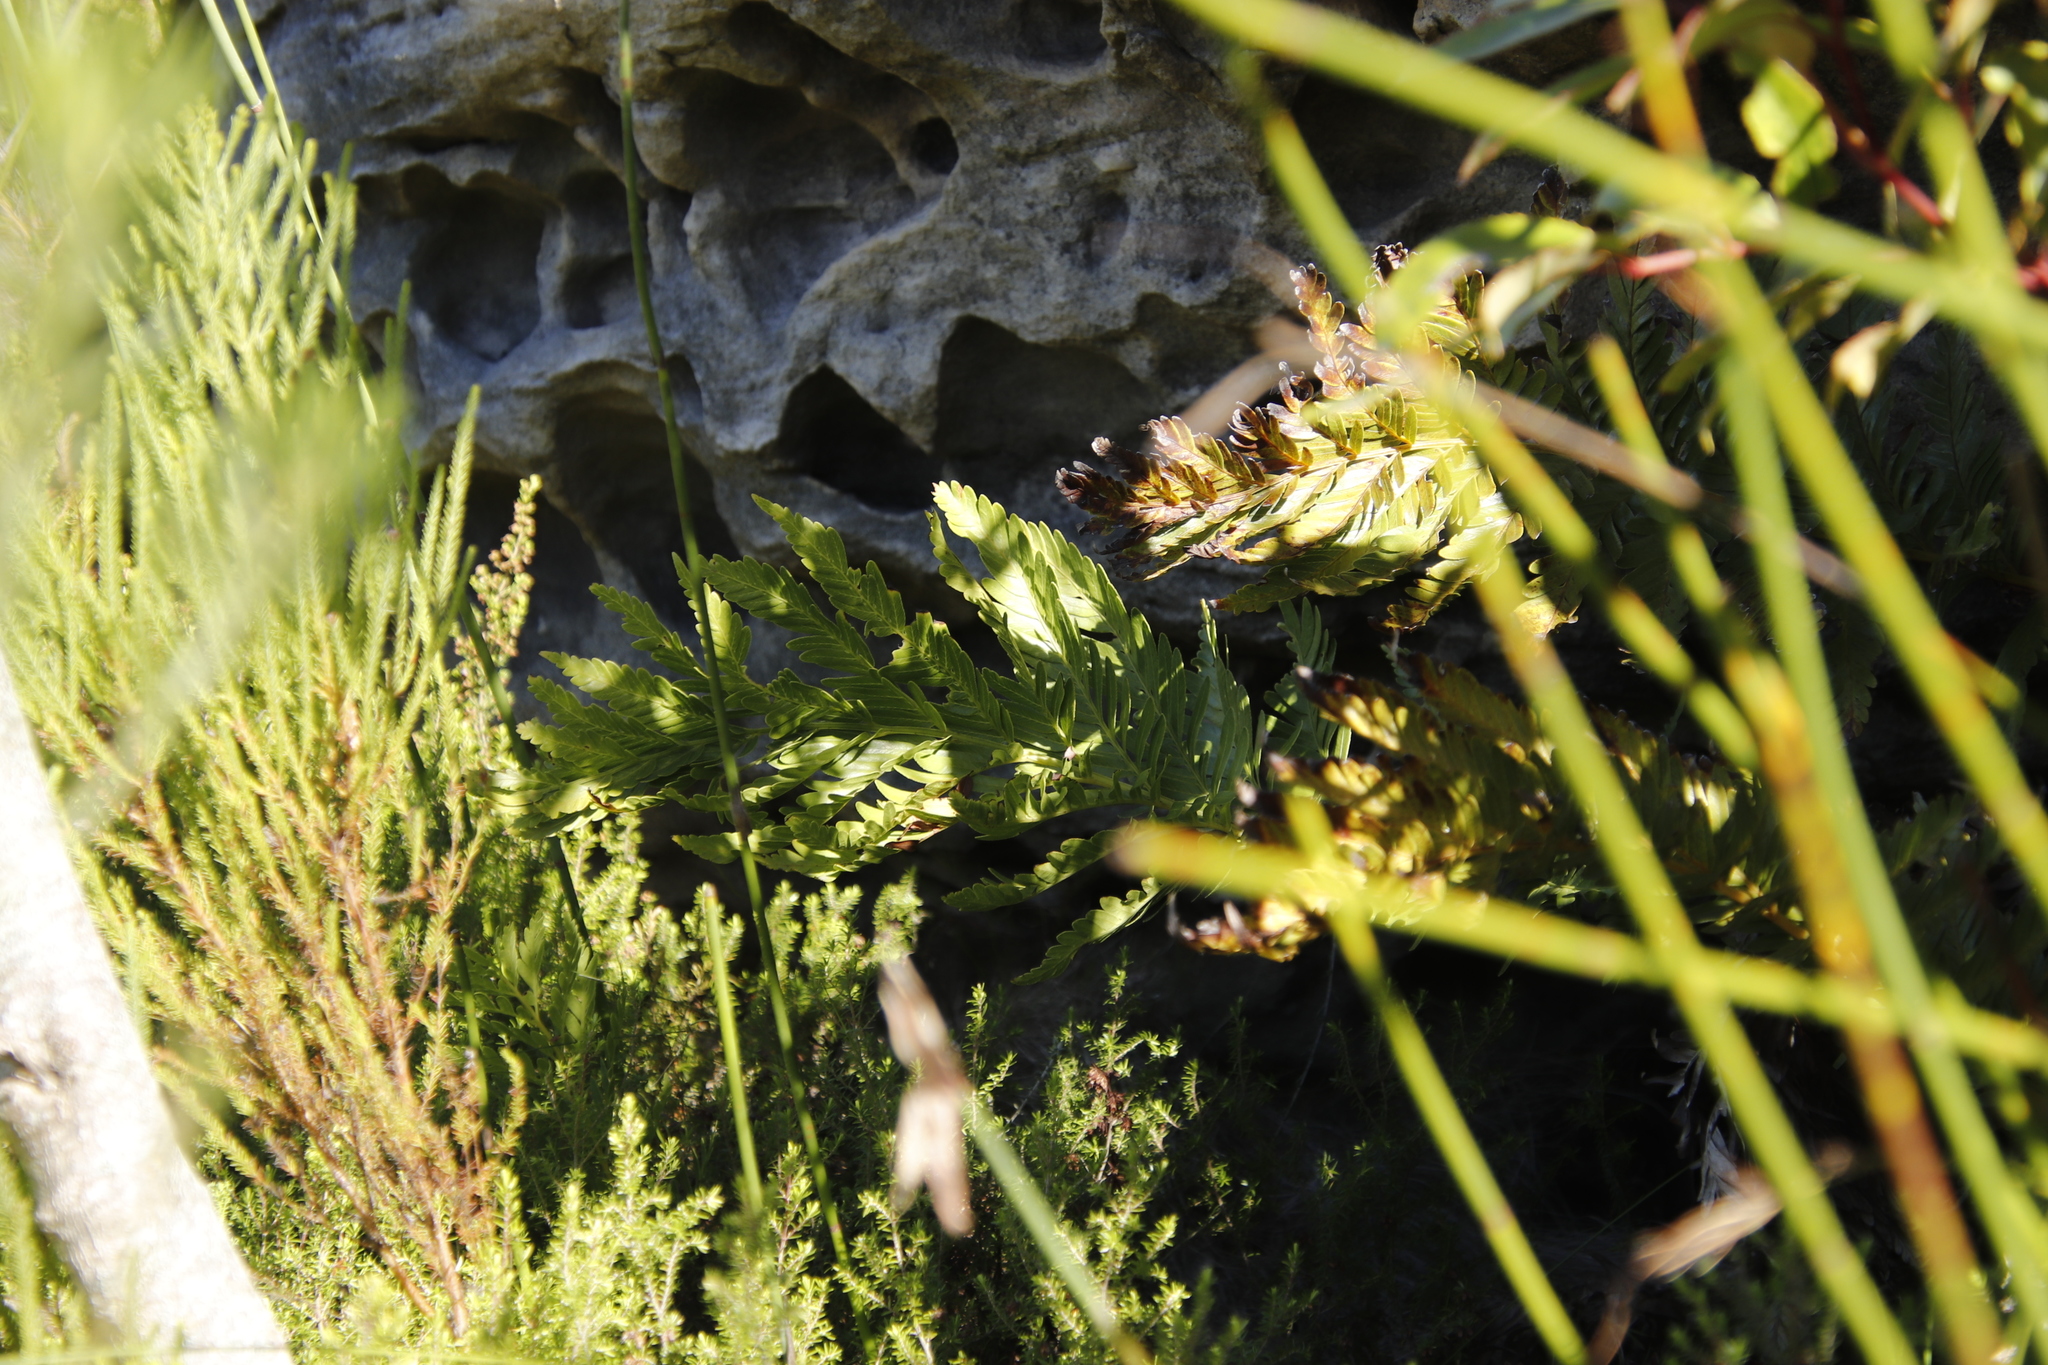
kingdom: Plantae
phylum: Tracheophyta
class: Polypodiopsida
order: Osmundales
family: Osmundaceae
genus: Todea
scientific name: Todea barbara
